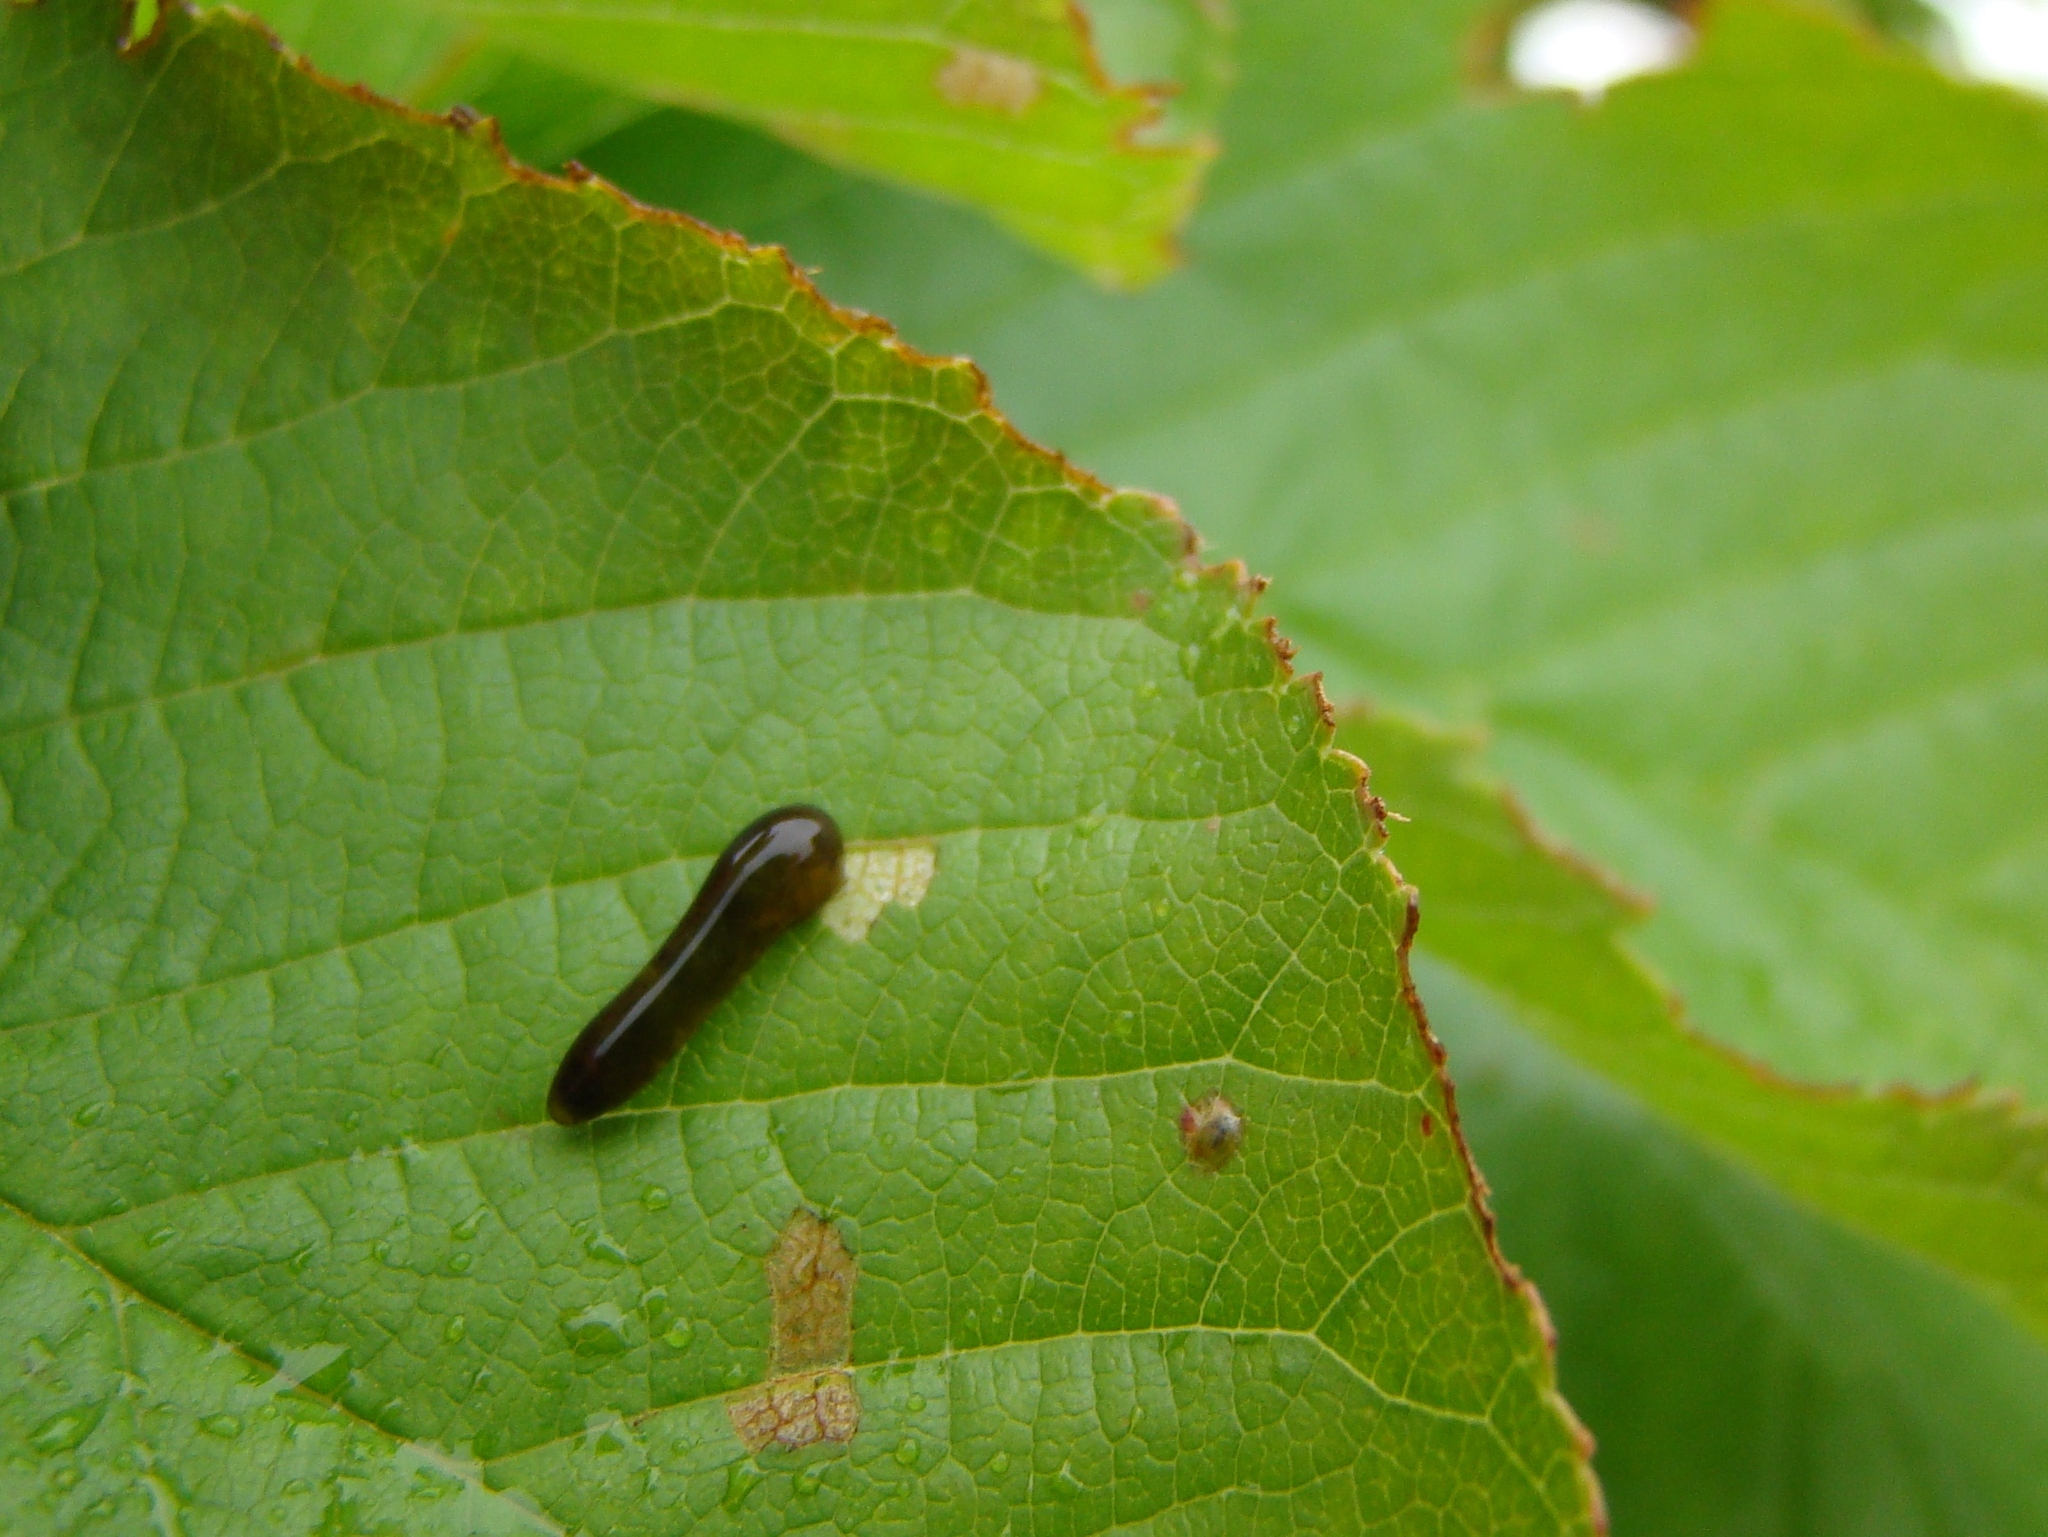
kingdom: Animalia
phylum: Arthropoda
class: Insecta
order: Hymenoptera
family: Tenthredinidae
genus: Caliroa
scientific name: Caliroa cerasi
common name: Pear sawfly
